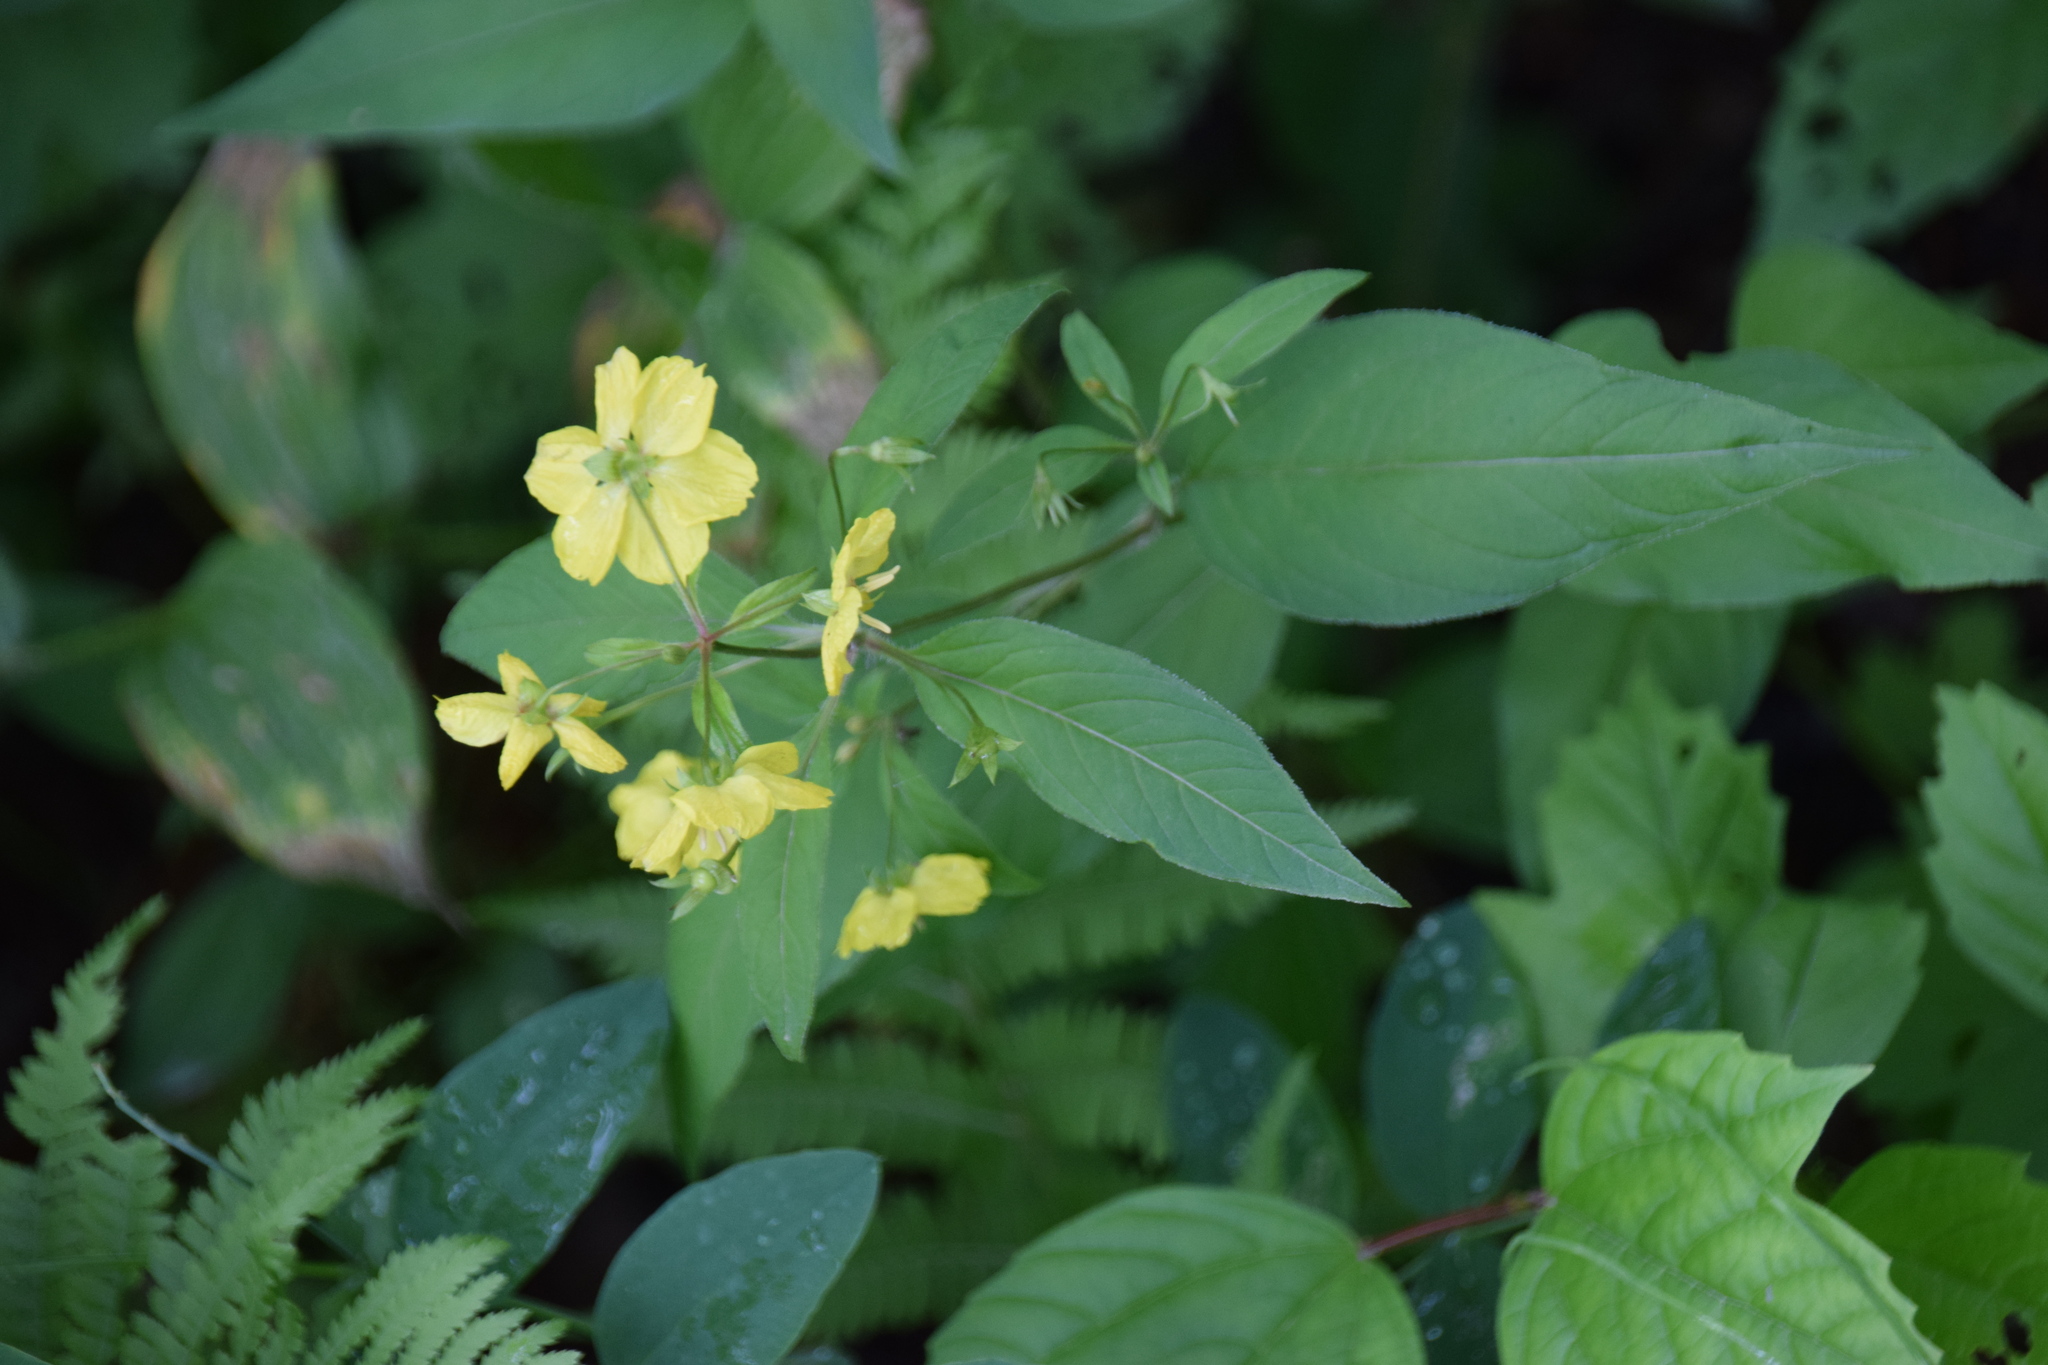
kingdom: Plantae
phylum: Tracheophyta
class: Magnoliopsida
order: Ericales
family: Primulaceae
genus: Lysimachia
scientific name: Lysimachia ciliata
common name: Fringed loosestrife
